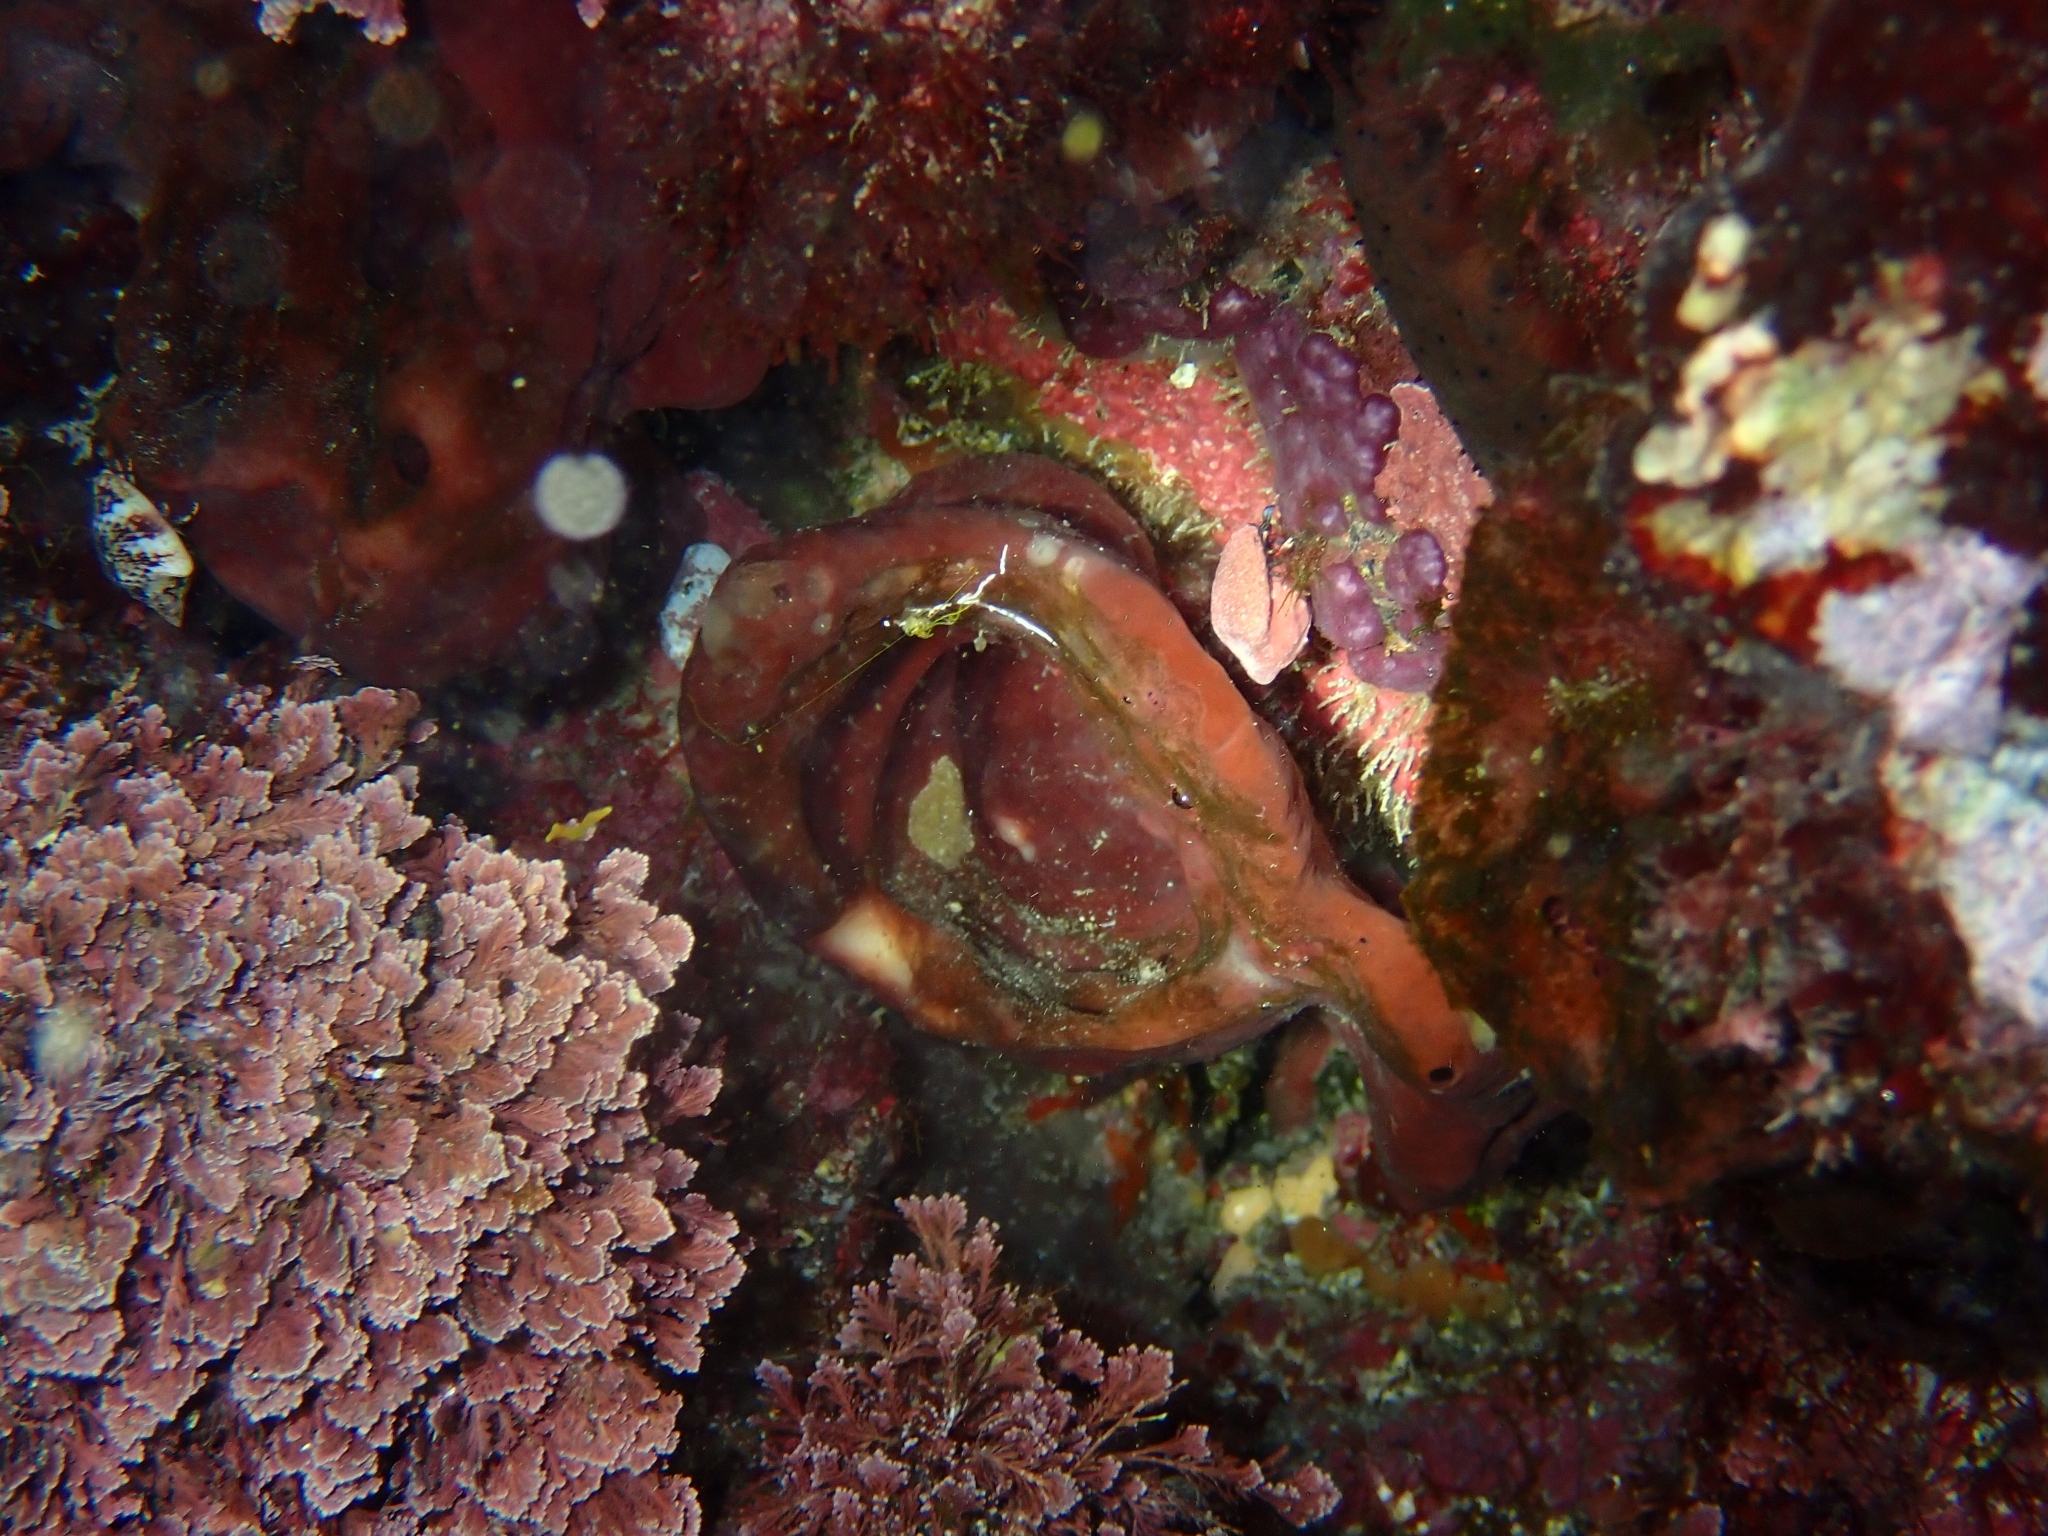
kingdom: Animalia
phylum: Porifera
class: Demospongiae
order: Haplosclerida
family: Petrosiidae
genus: Petrosia
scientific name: Petrosia ficiformis
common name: Stony sponge
